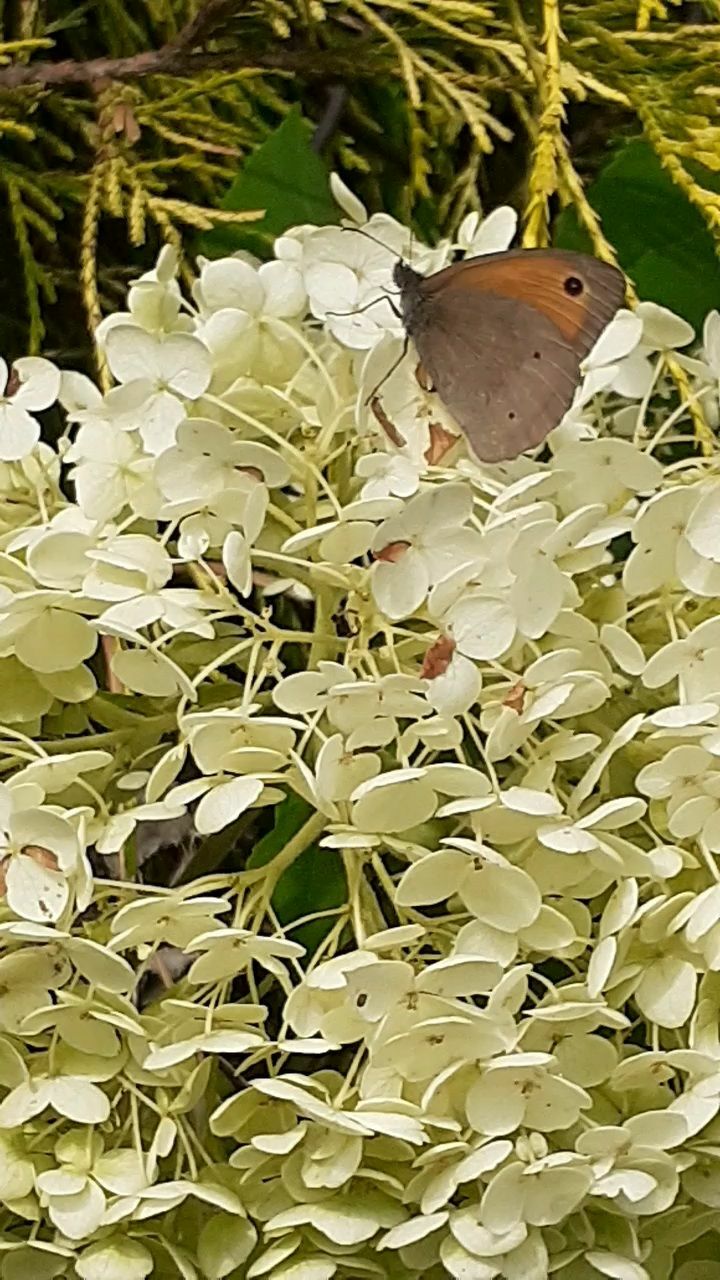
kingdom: Animalia
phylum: Arthropoda
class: Insecta
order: Lepidoptera
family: Nymphalidae
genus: Maniola
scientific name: Maniola jurtina
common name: Meadow brown
